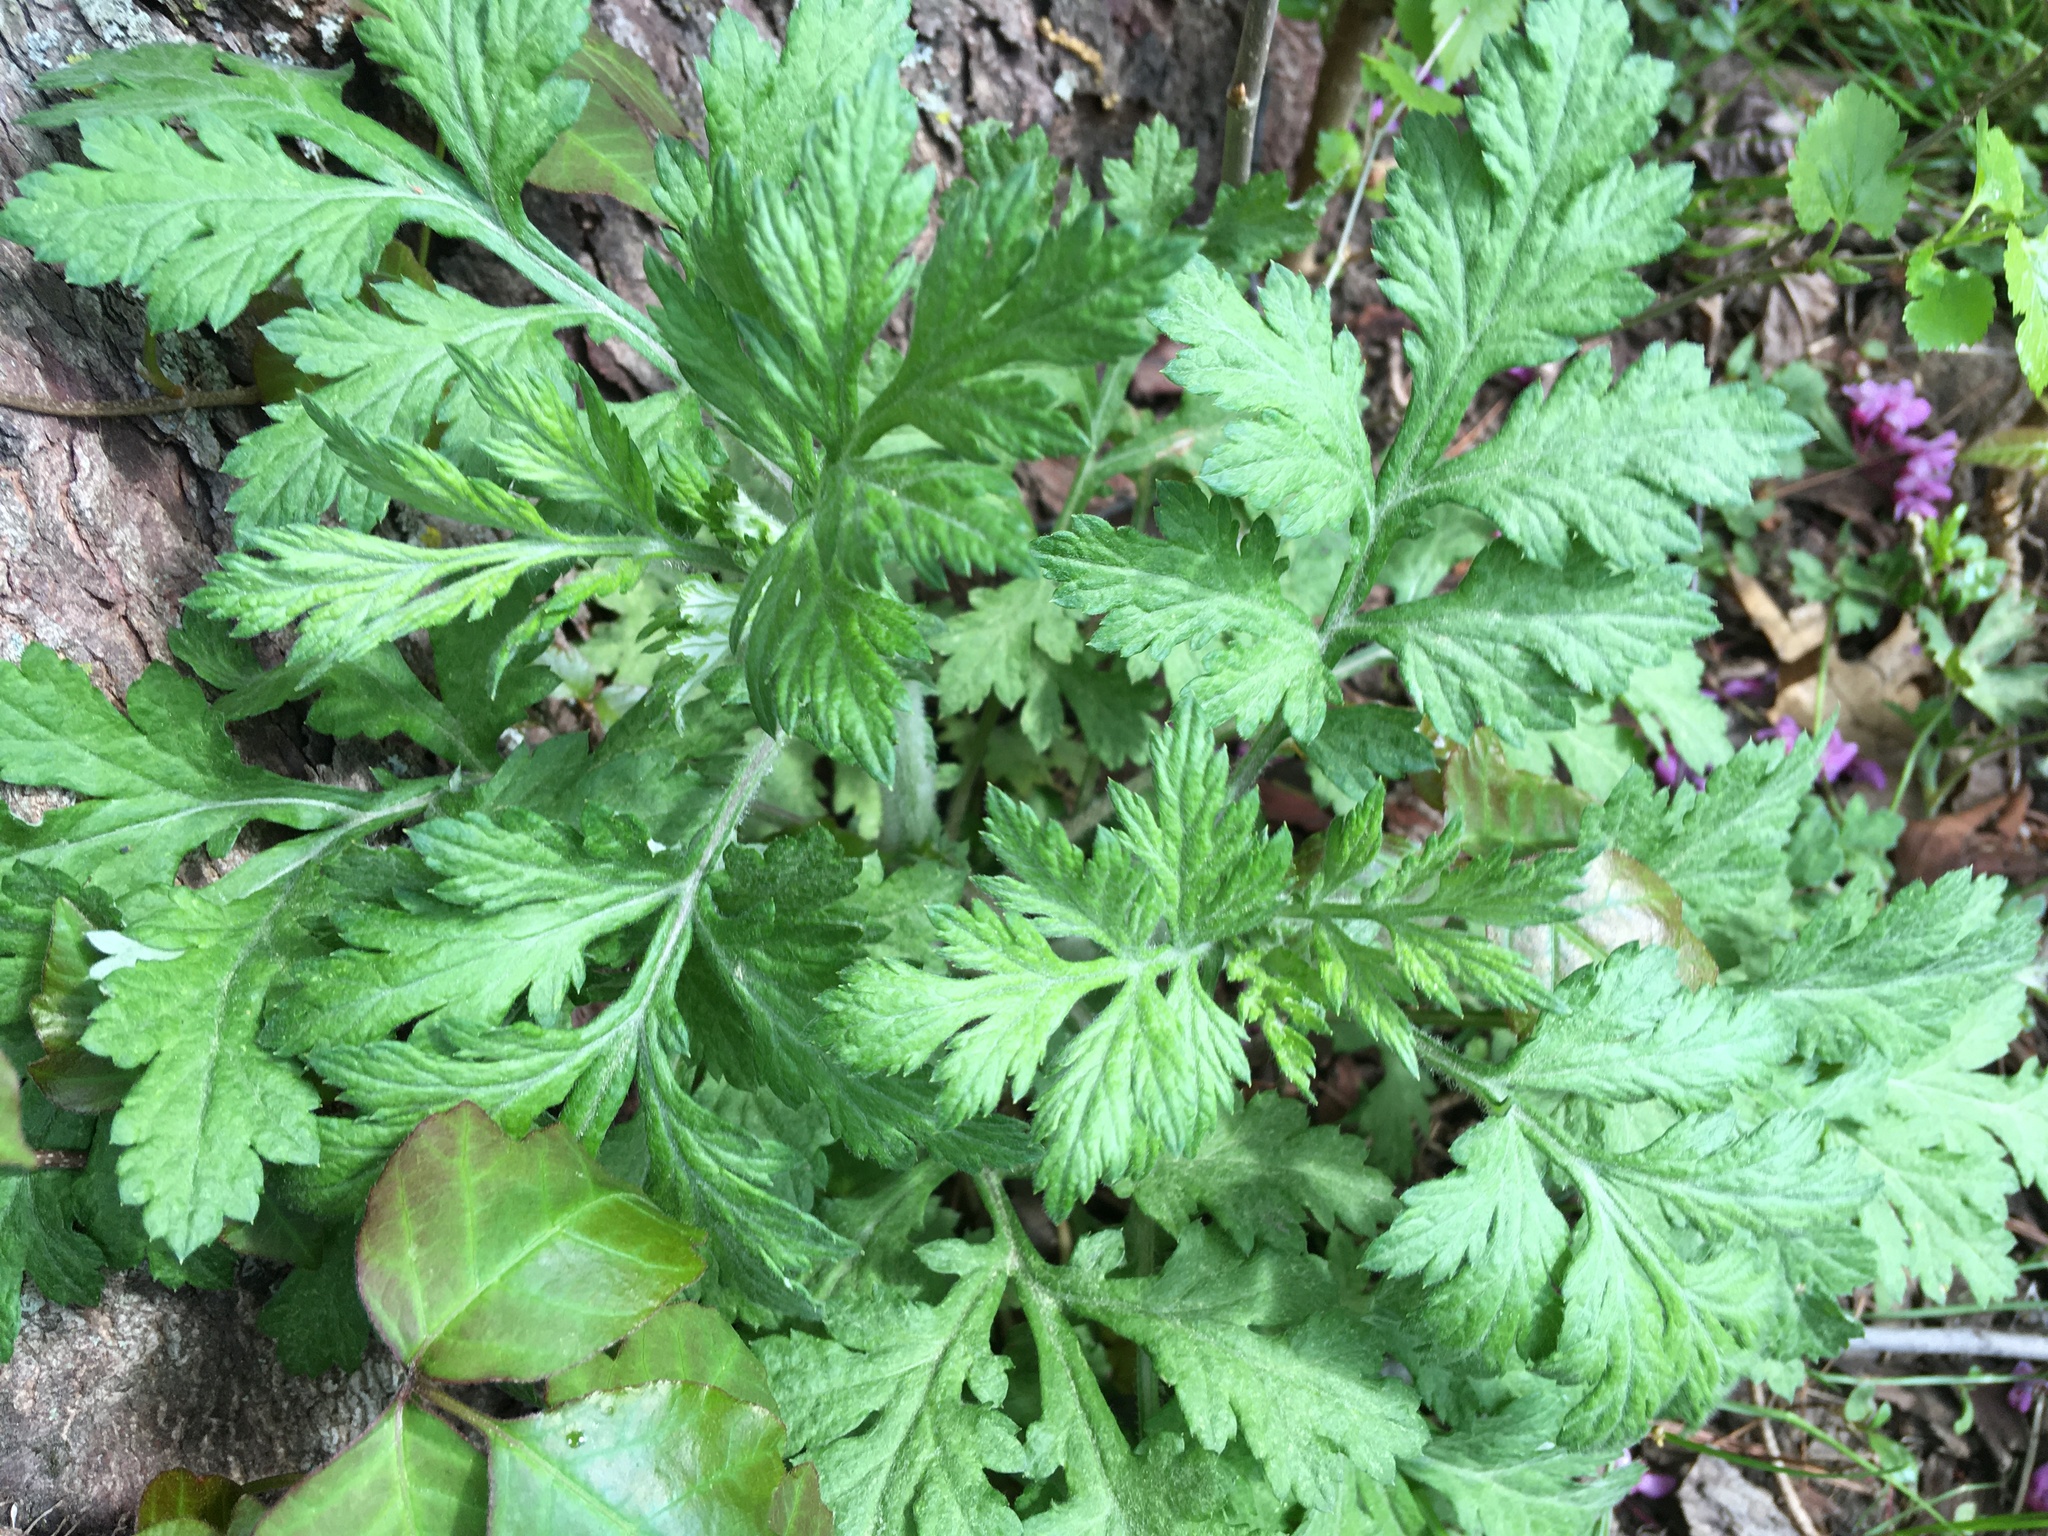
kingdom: Plantae
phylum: Tracheophyta
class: Magnoliopsida
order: Asterales
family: Asteraceae
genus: Artemisia
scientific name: Artemisia vulgaris
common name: Mugwort
